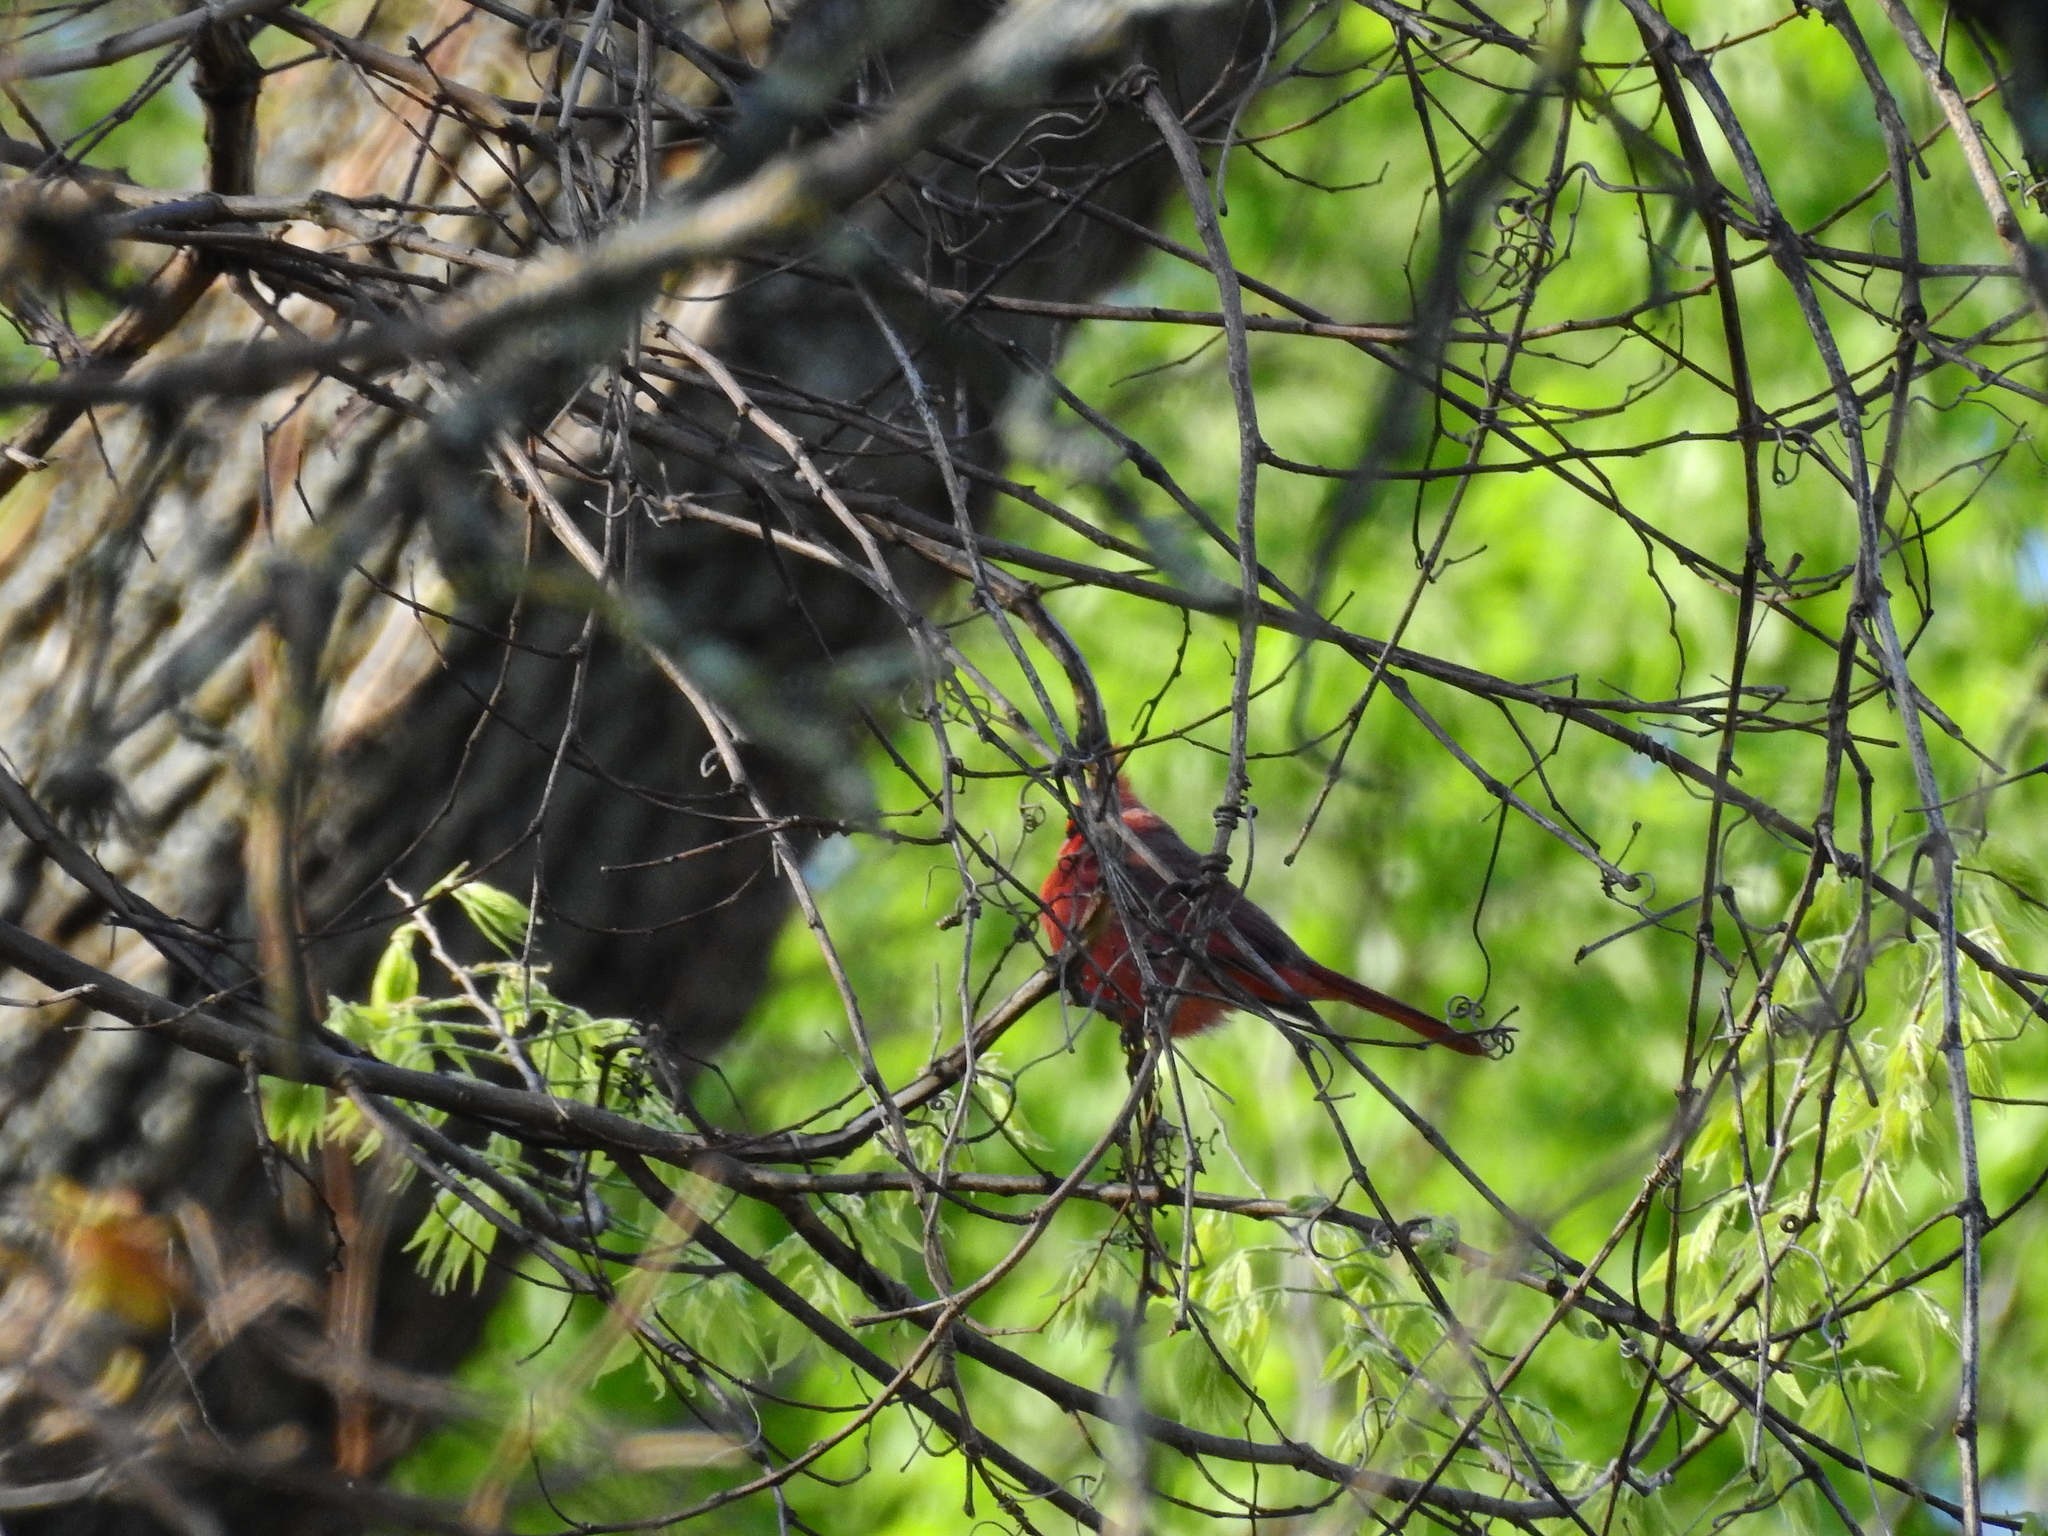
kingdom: Animalia
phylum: Chordata
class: Aves
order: Passeriformes
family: Cardinalidae
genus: Cardinalis
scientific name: Cardinalis cardinalis
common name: Northern cardinal
